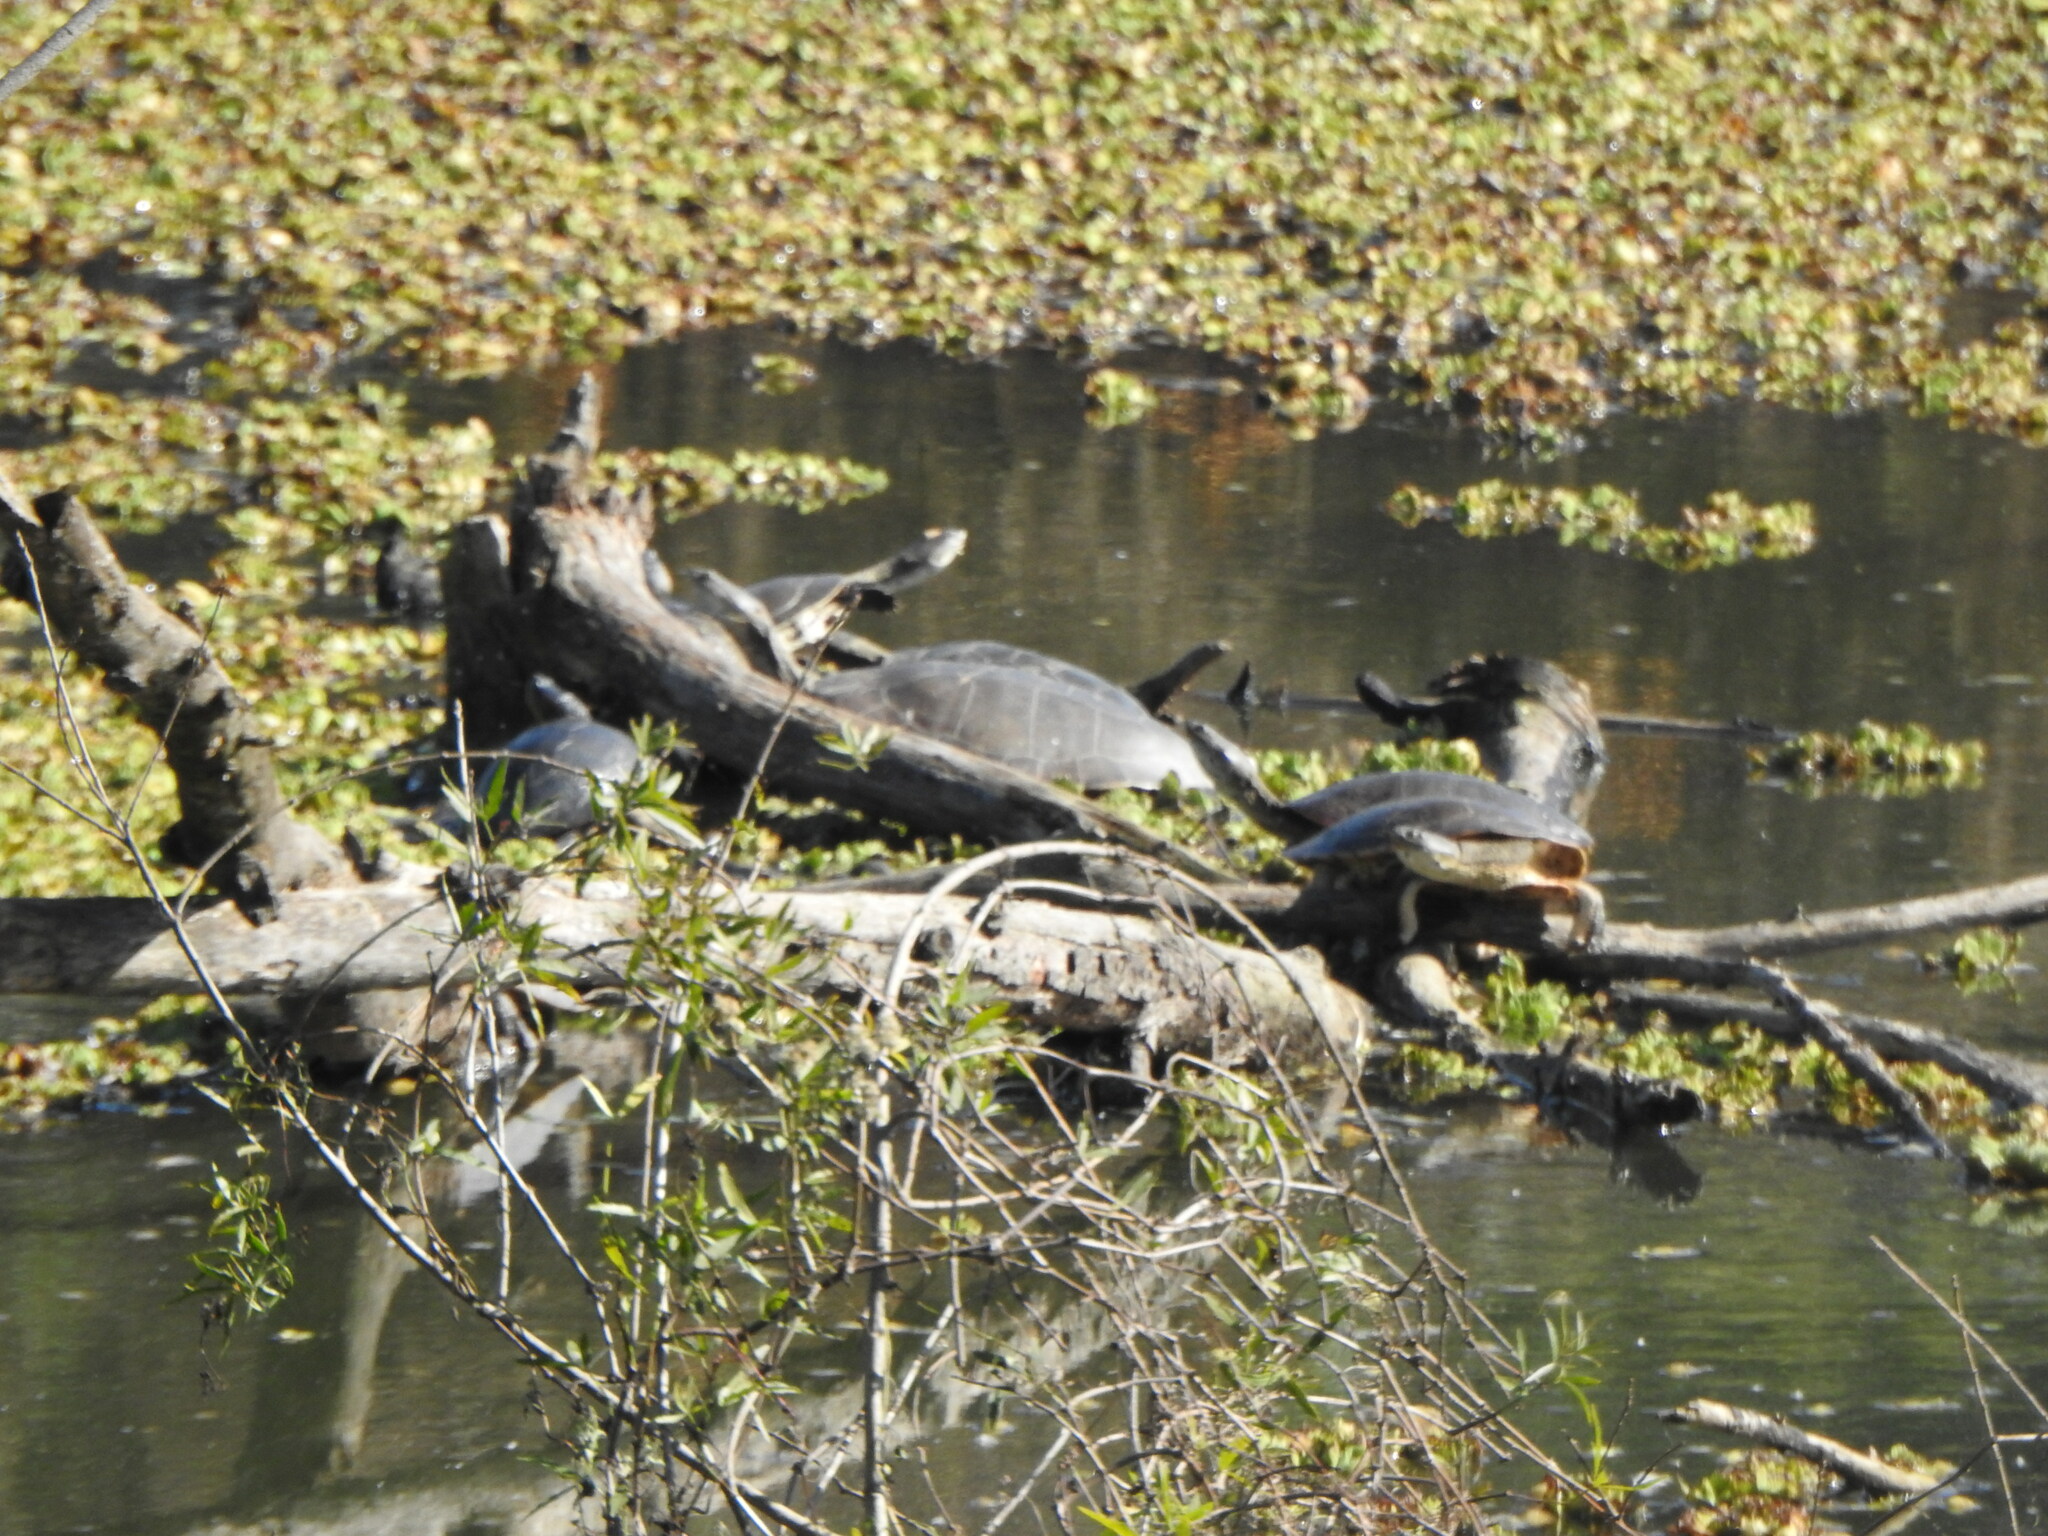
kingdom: Animalia
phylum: Chordata
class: Testudines
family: Chelidae
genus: Phrynops
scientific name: Phrynops hilarii
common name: Side-necked turtle of saint hillaire
